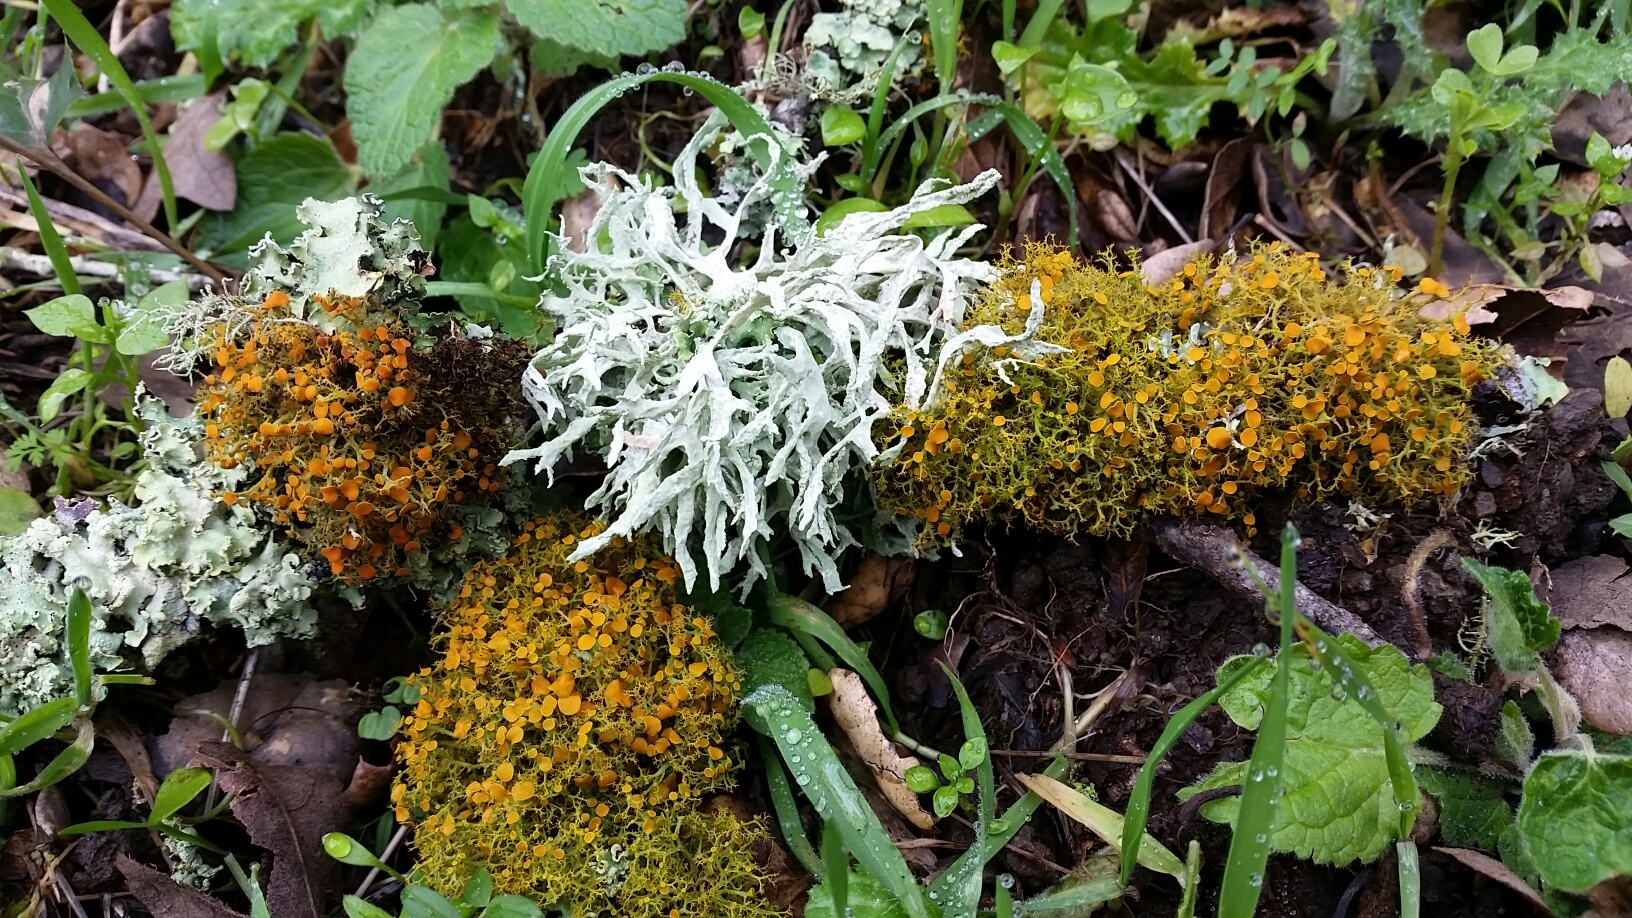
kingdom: Fungi
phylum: Ascomycota
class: Lecanoromycetes
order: Lecanorales
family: Parmeliaceae
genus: Evernia
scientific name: Evernia prunastri
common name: Oak moss
